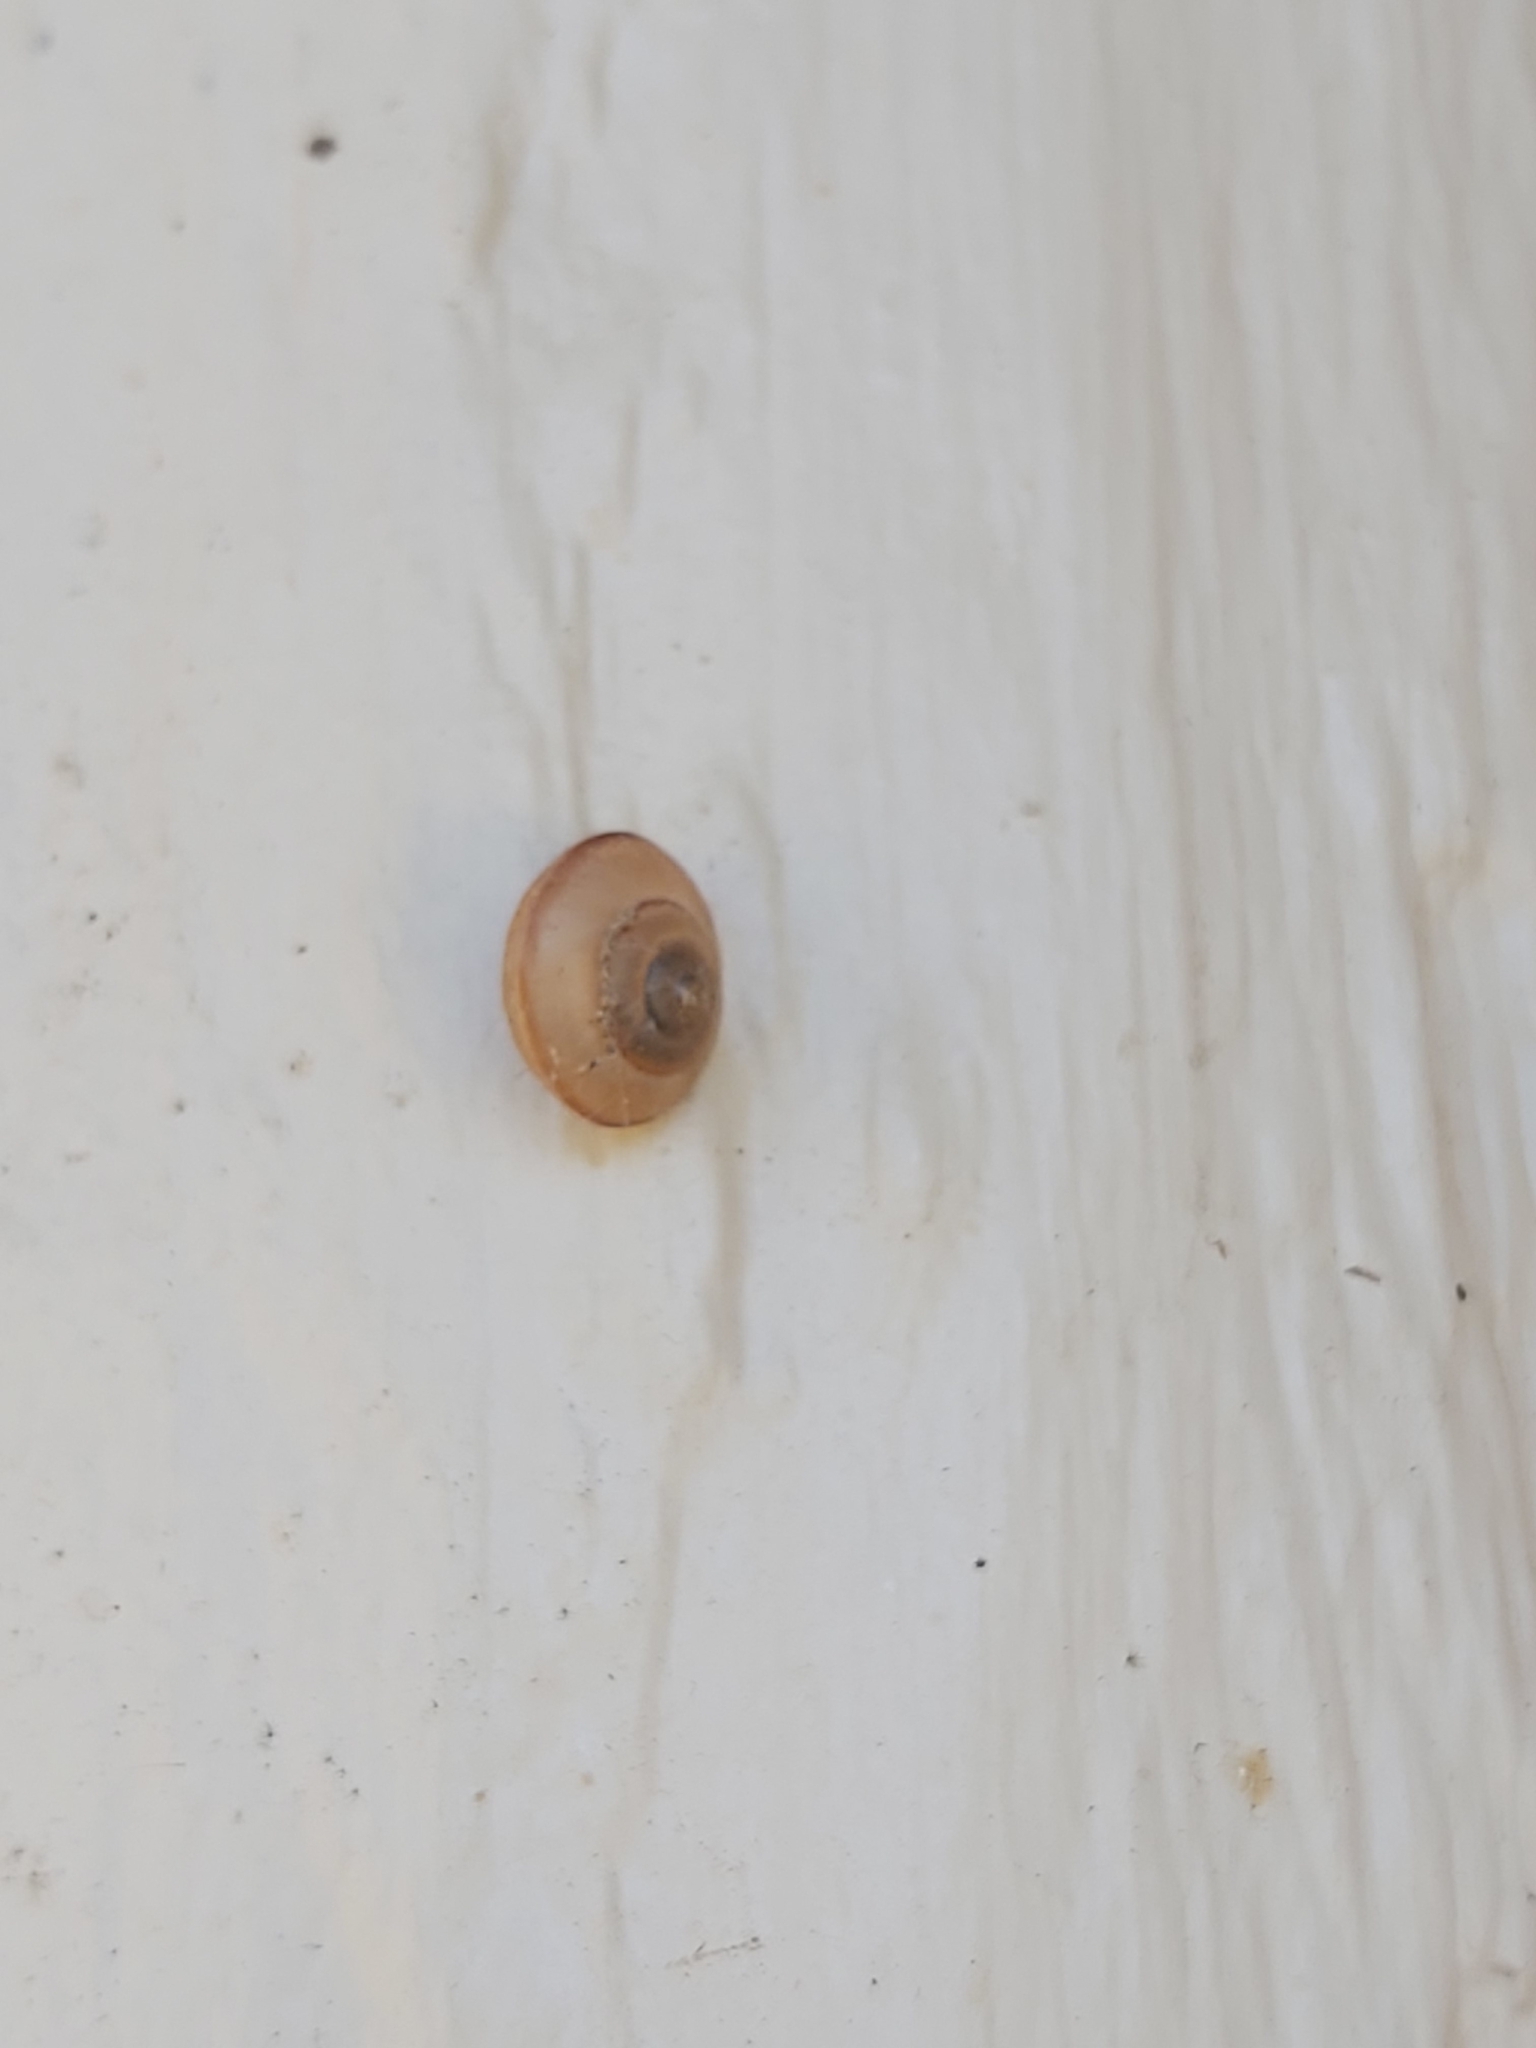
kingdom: Animalia
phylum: Mollusca
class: Gastropoda
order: Stylommatophora
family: Camaenidae
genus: Bradybaena
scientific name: Bradybaena similaris
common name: Asian trampsnail
